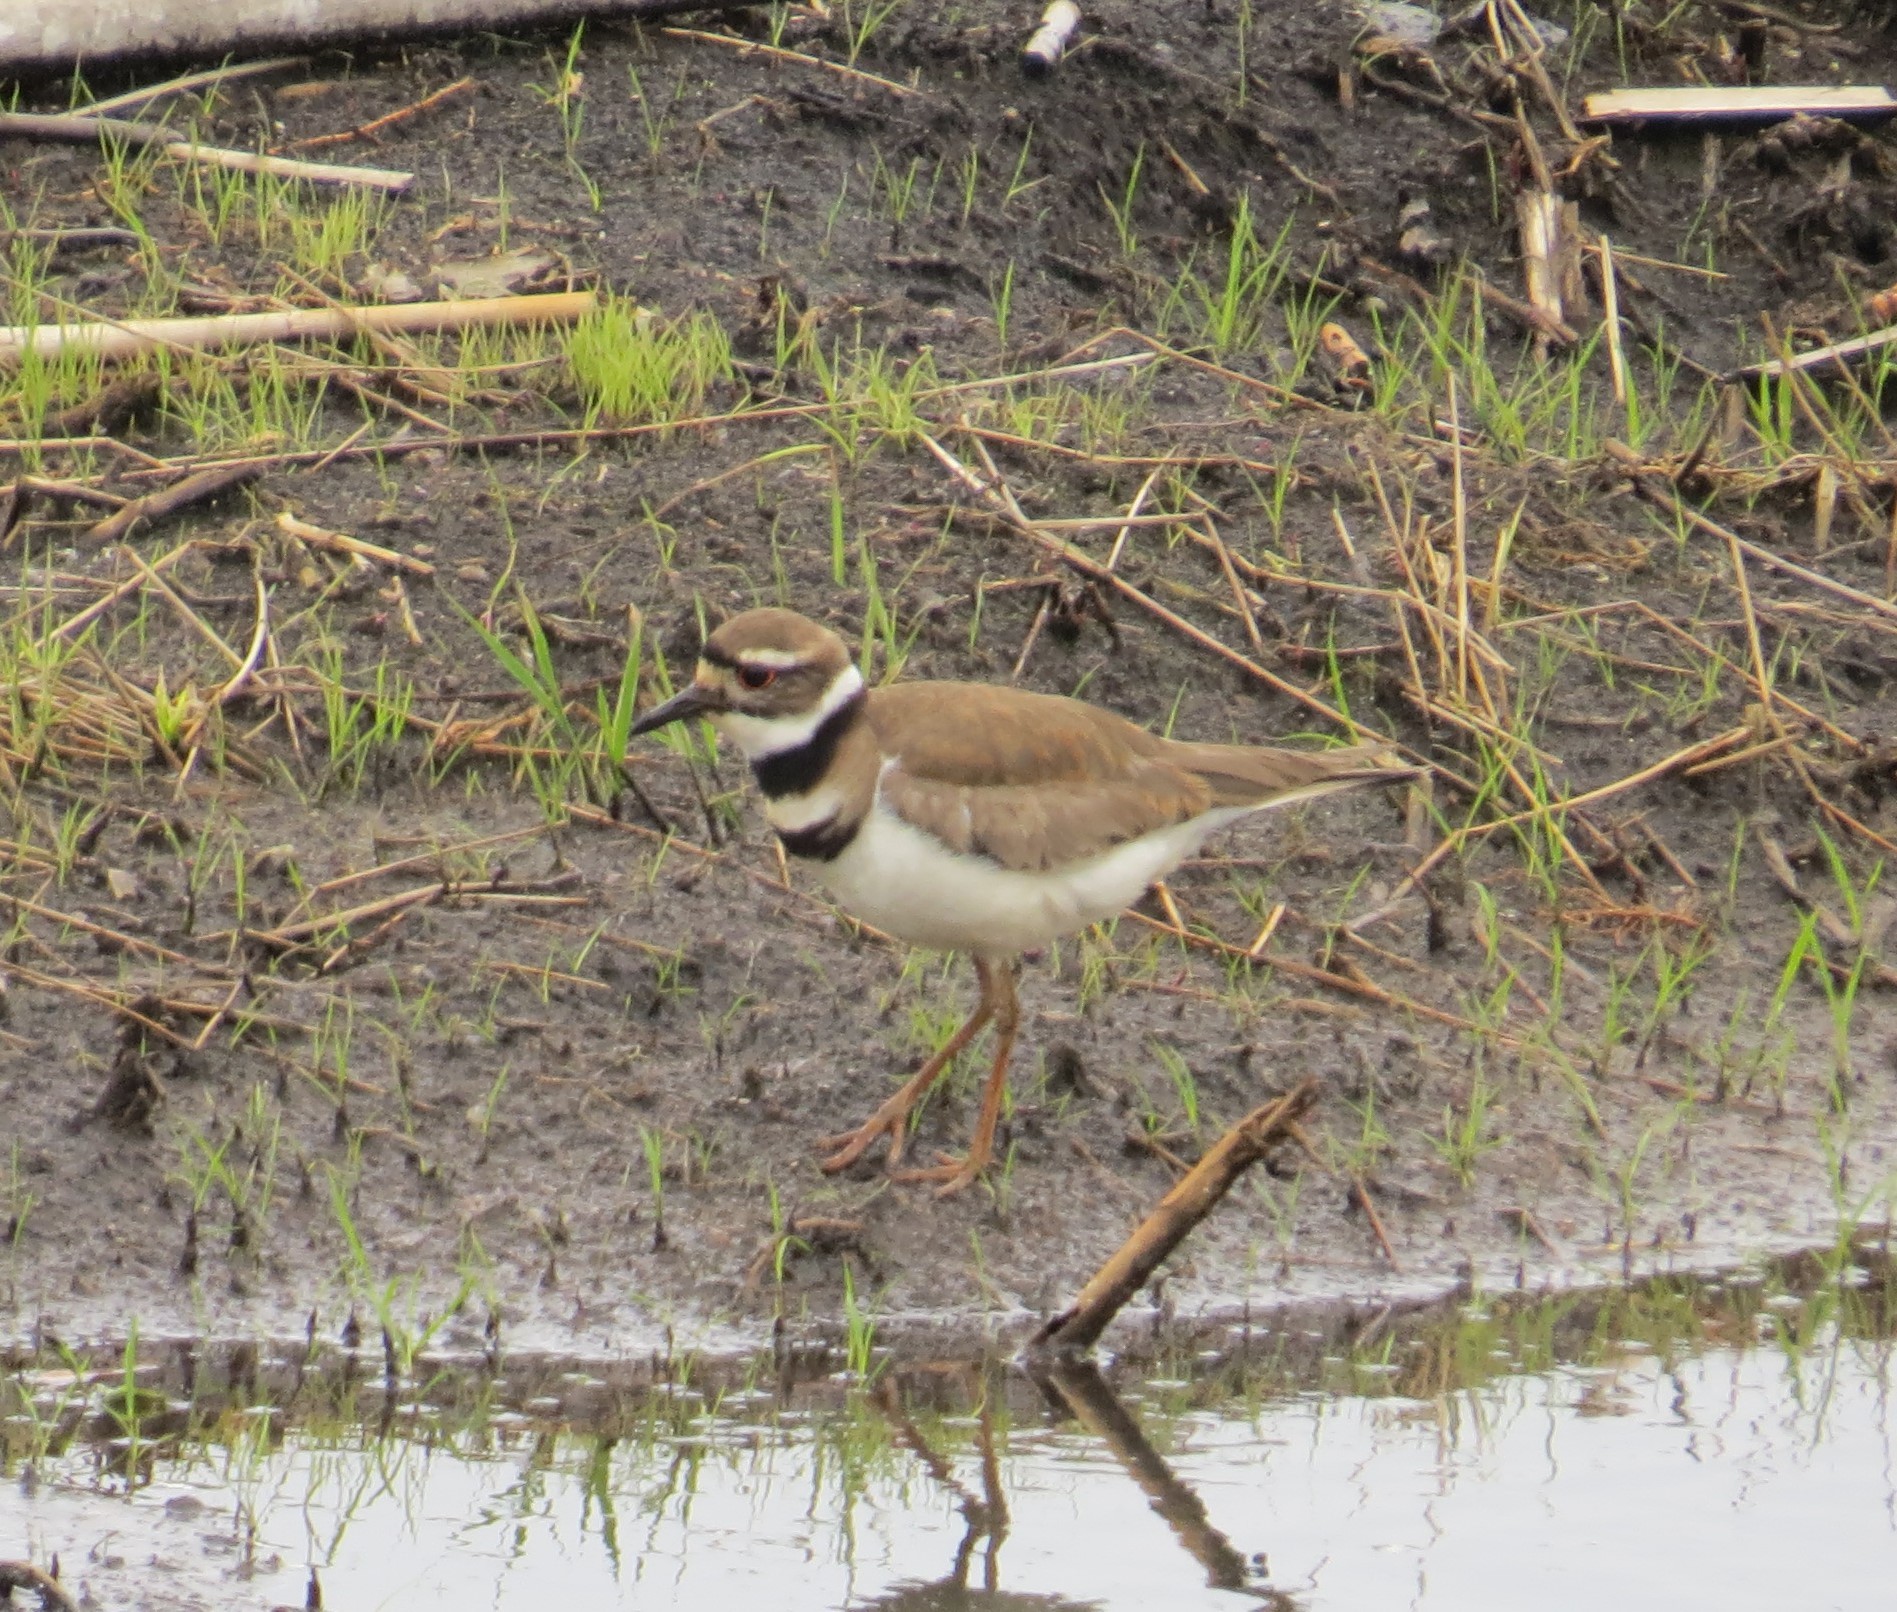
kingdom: Animalia
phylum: Chordata
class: Aves
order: Charadriiformes
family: Charadriidae
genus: Charadrius
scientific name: Charadrius vociferus
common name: Killdeer
